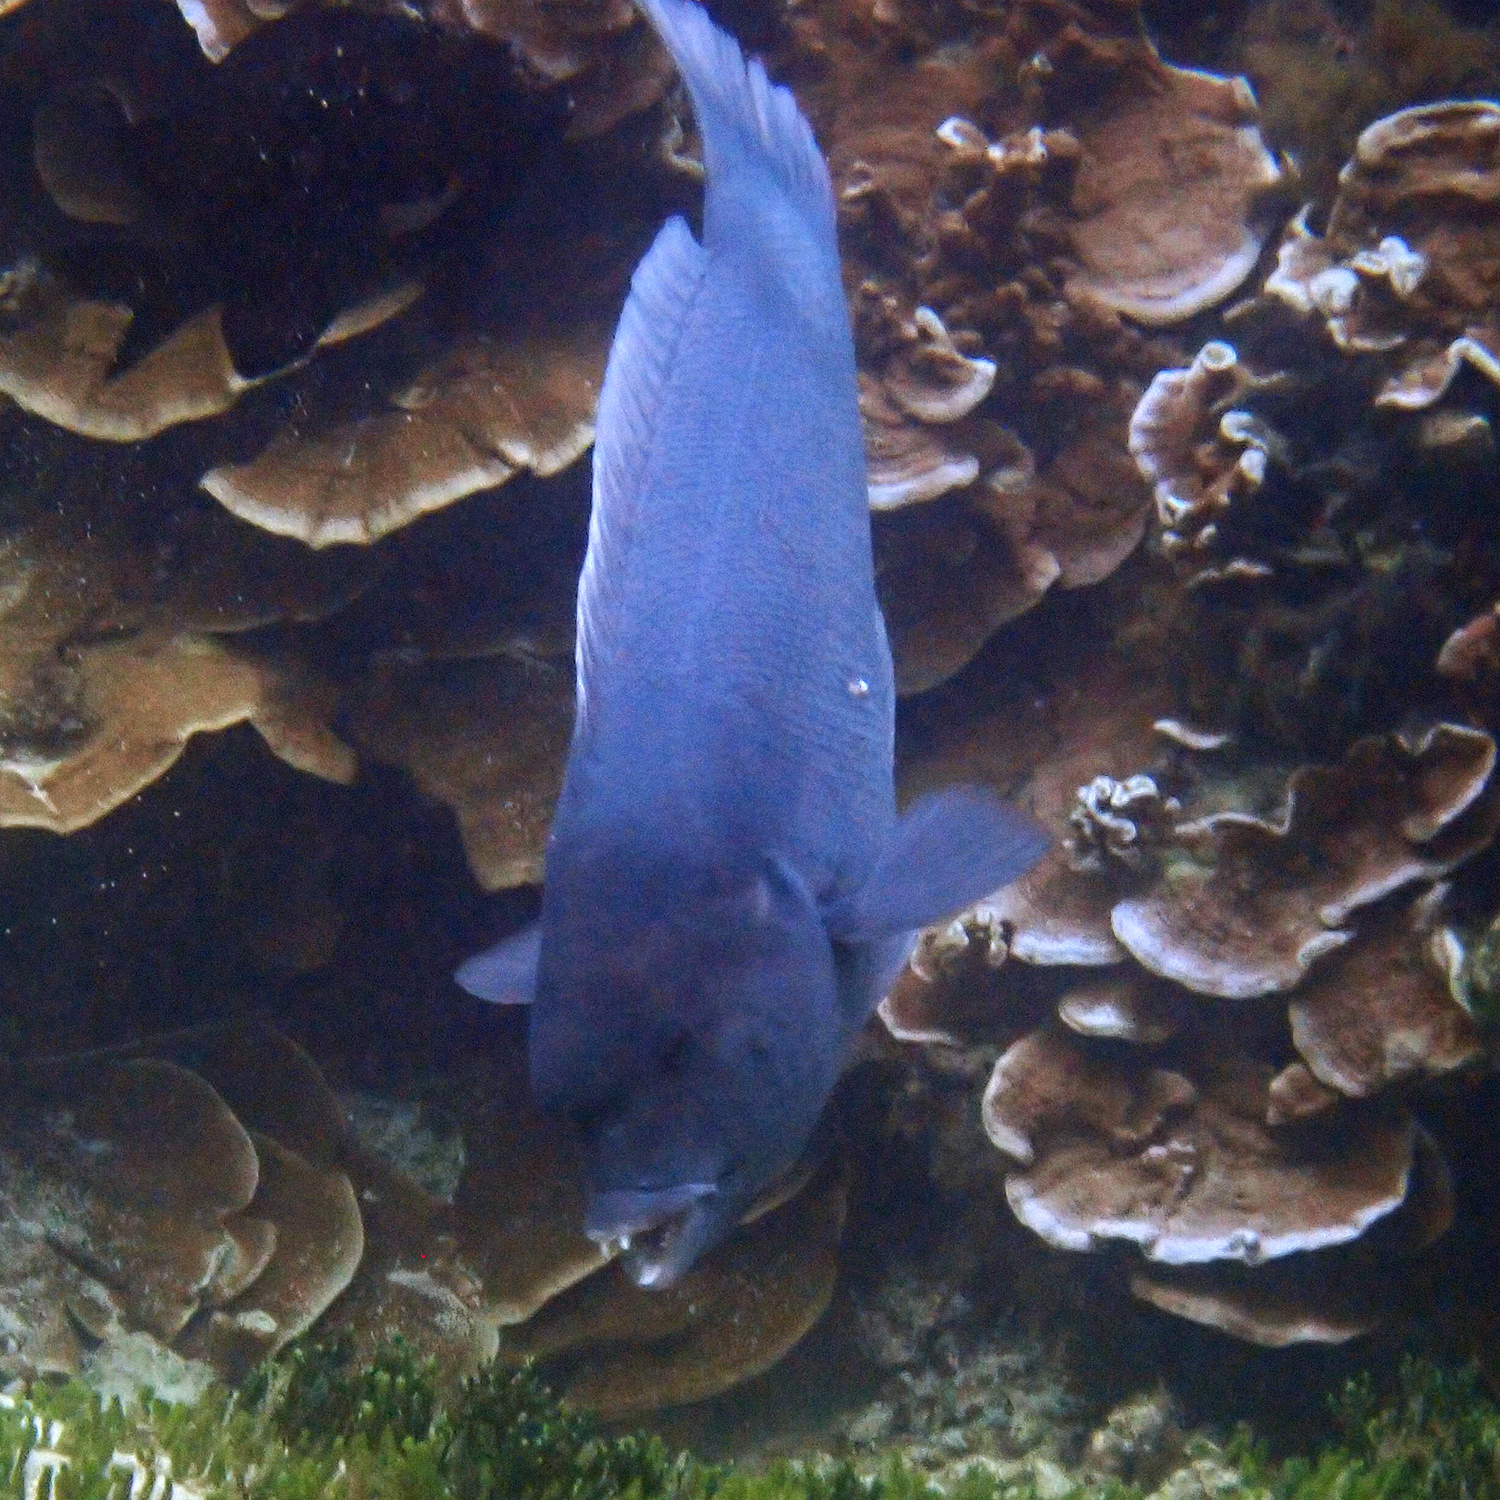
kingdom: Animalia
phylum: Chordata
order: Perciformes
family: Labridae
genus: Coris
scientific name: Coris bulbifrons
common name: Doubleheader
